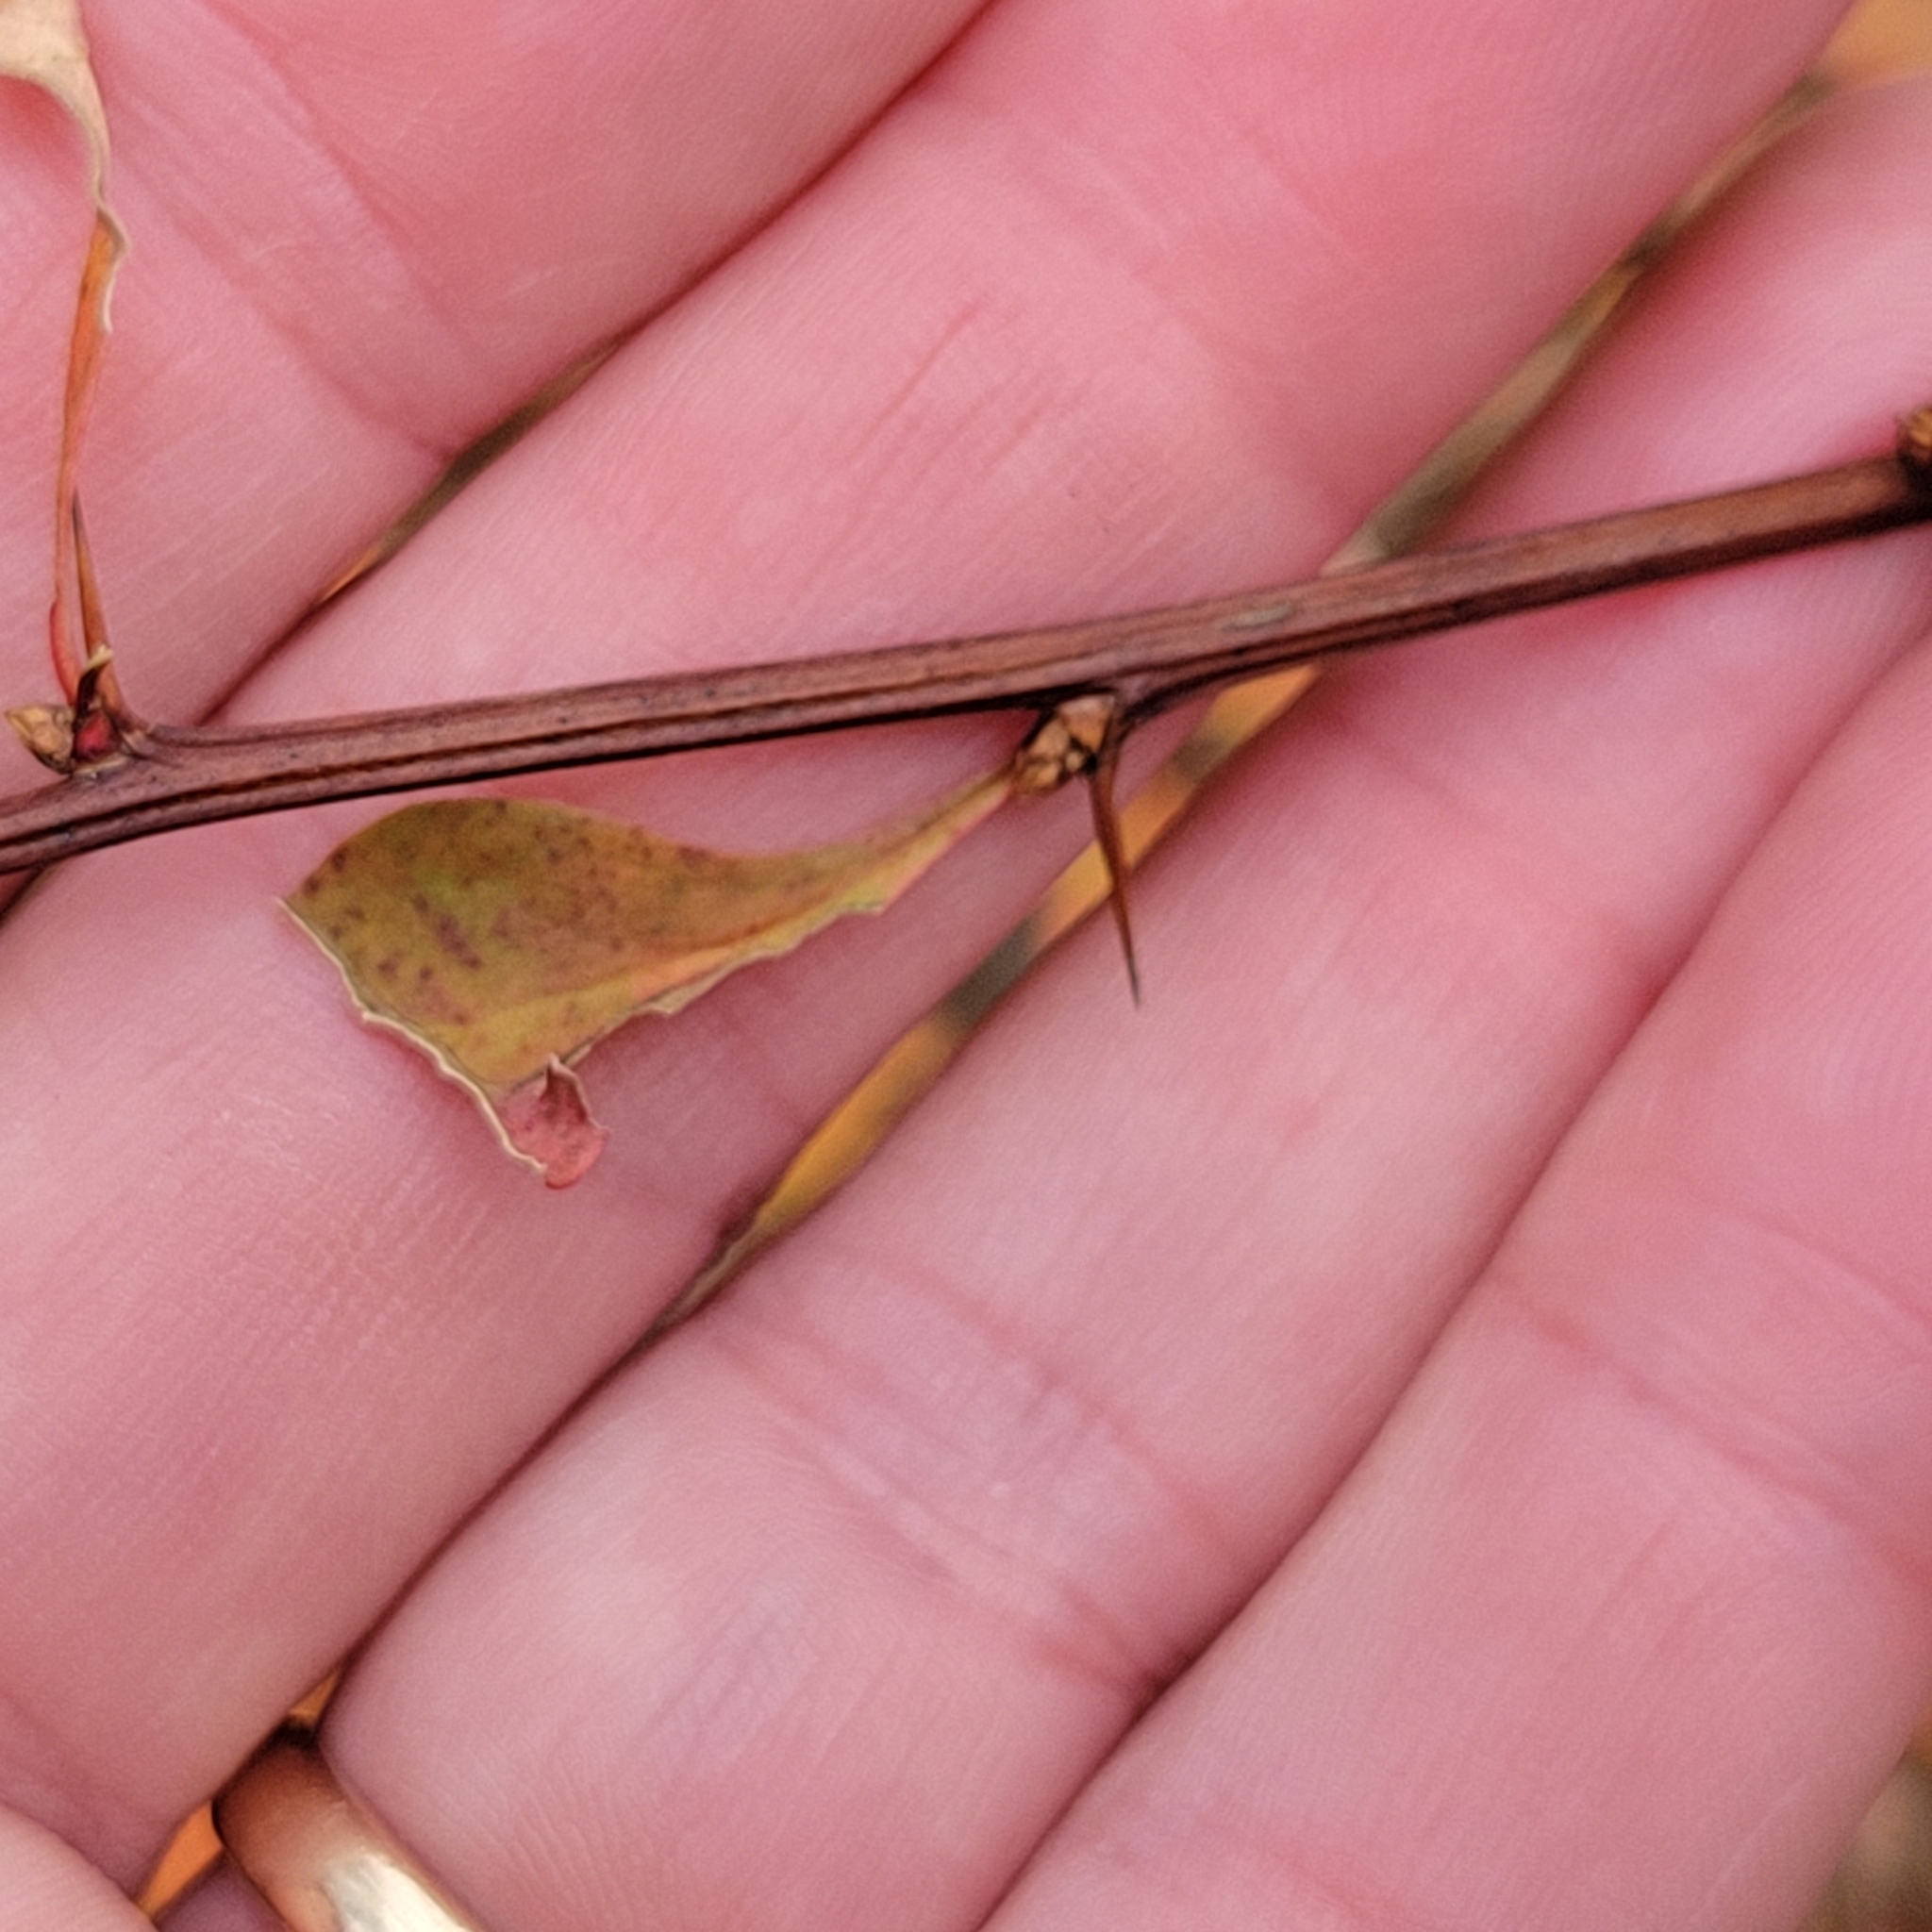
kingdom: Plantae
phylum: Tracheophyta
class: Magnoliopsida
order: Ranunculales
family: Berberidaceae
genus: Berberis
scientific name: Berberis thunbergii
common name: Japanese barberry
